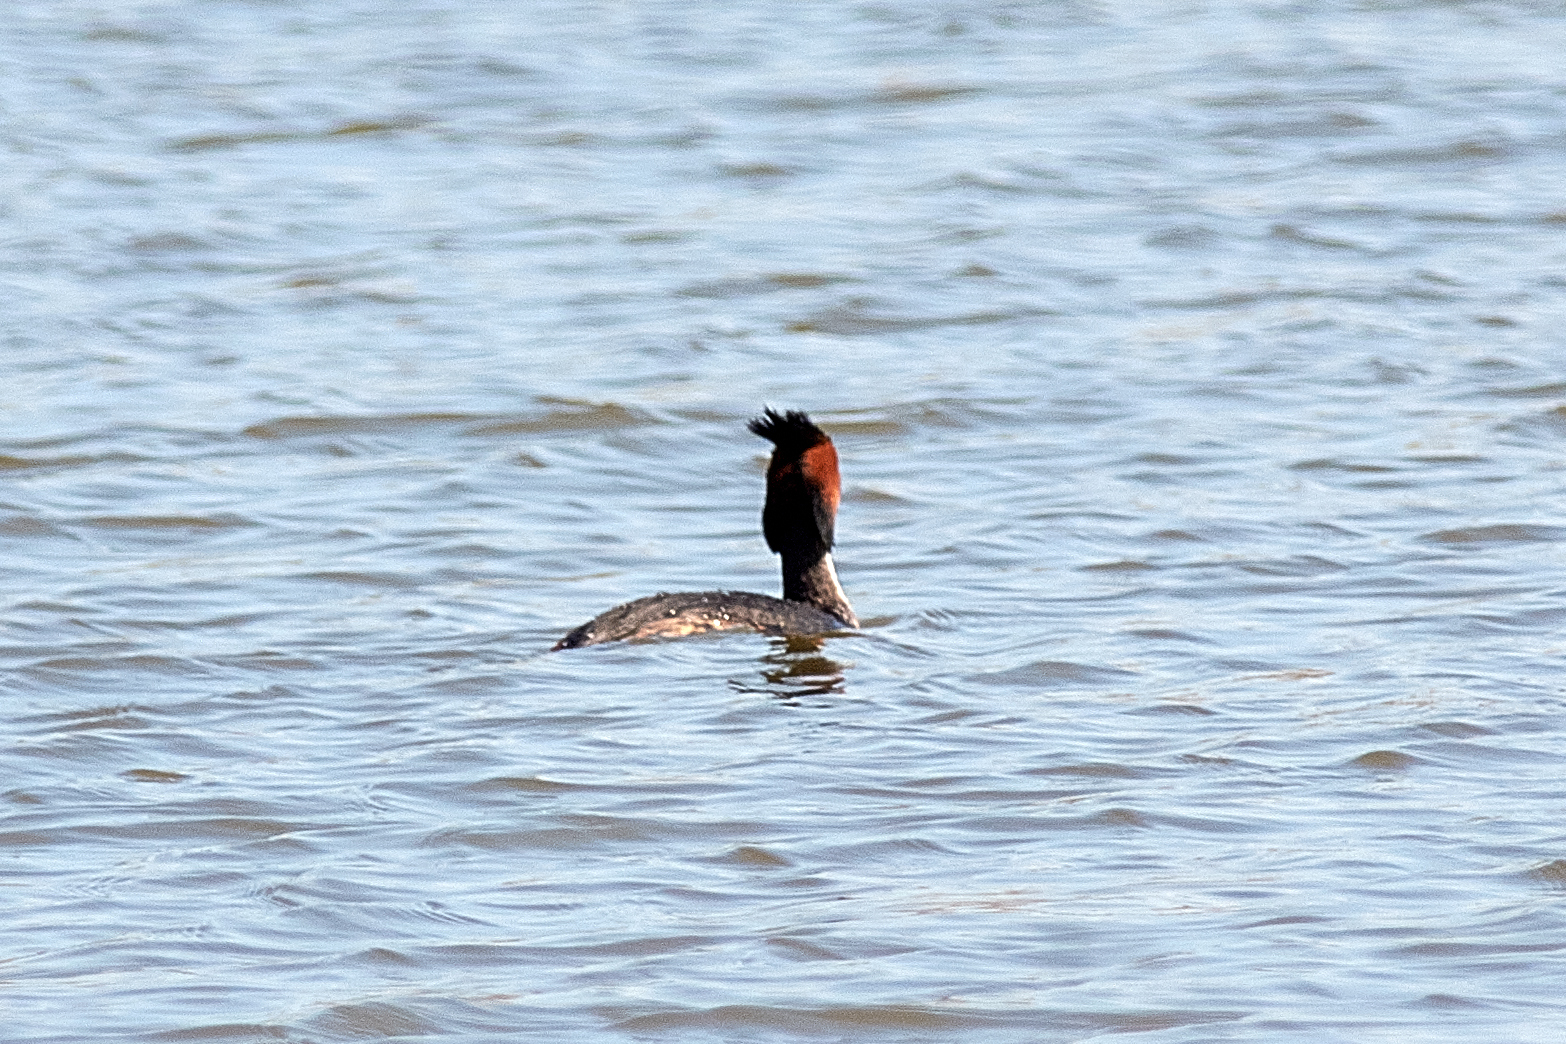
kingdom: Animalia
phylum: Chordata
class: Aves
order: Podicipediformes
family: Podicipedidae
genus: Podiceps
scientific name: Podiceps cristatus
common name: Great crested grebe
